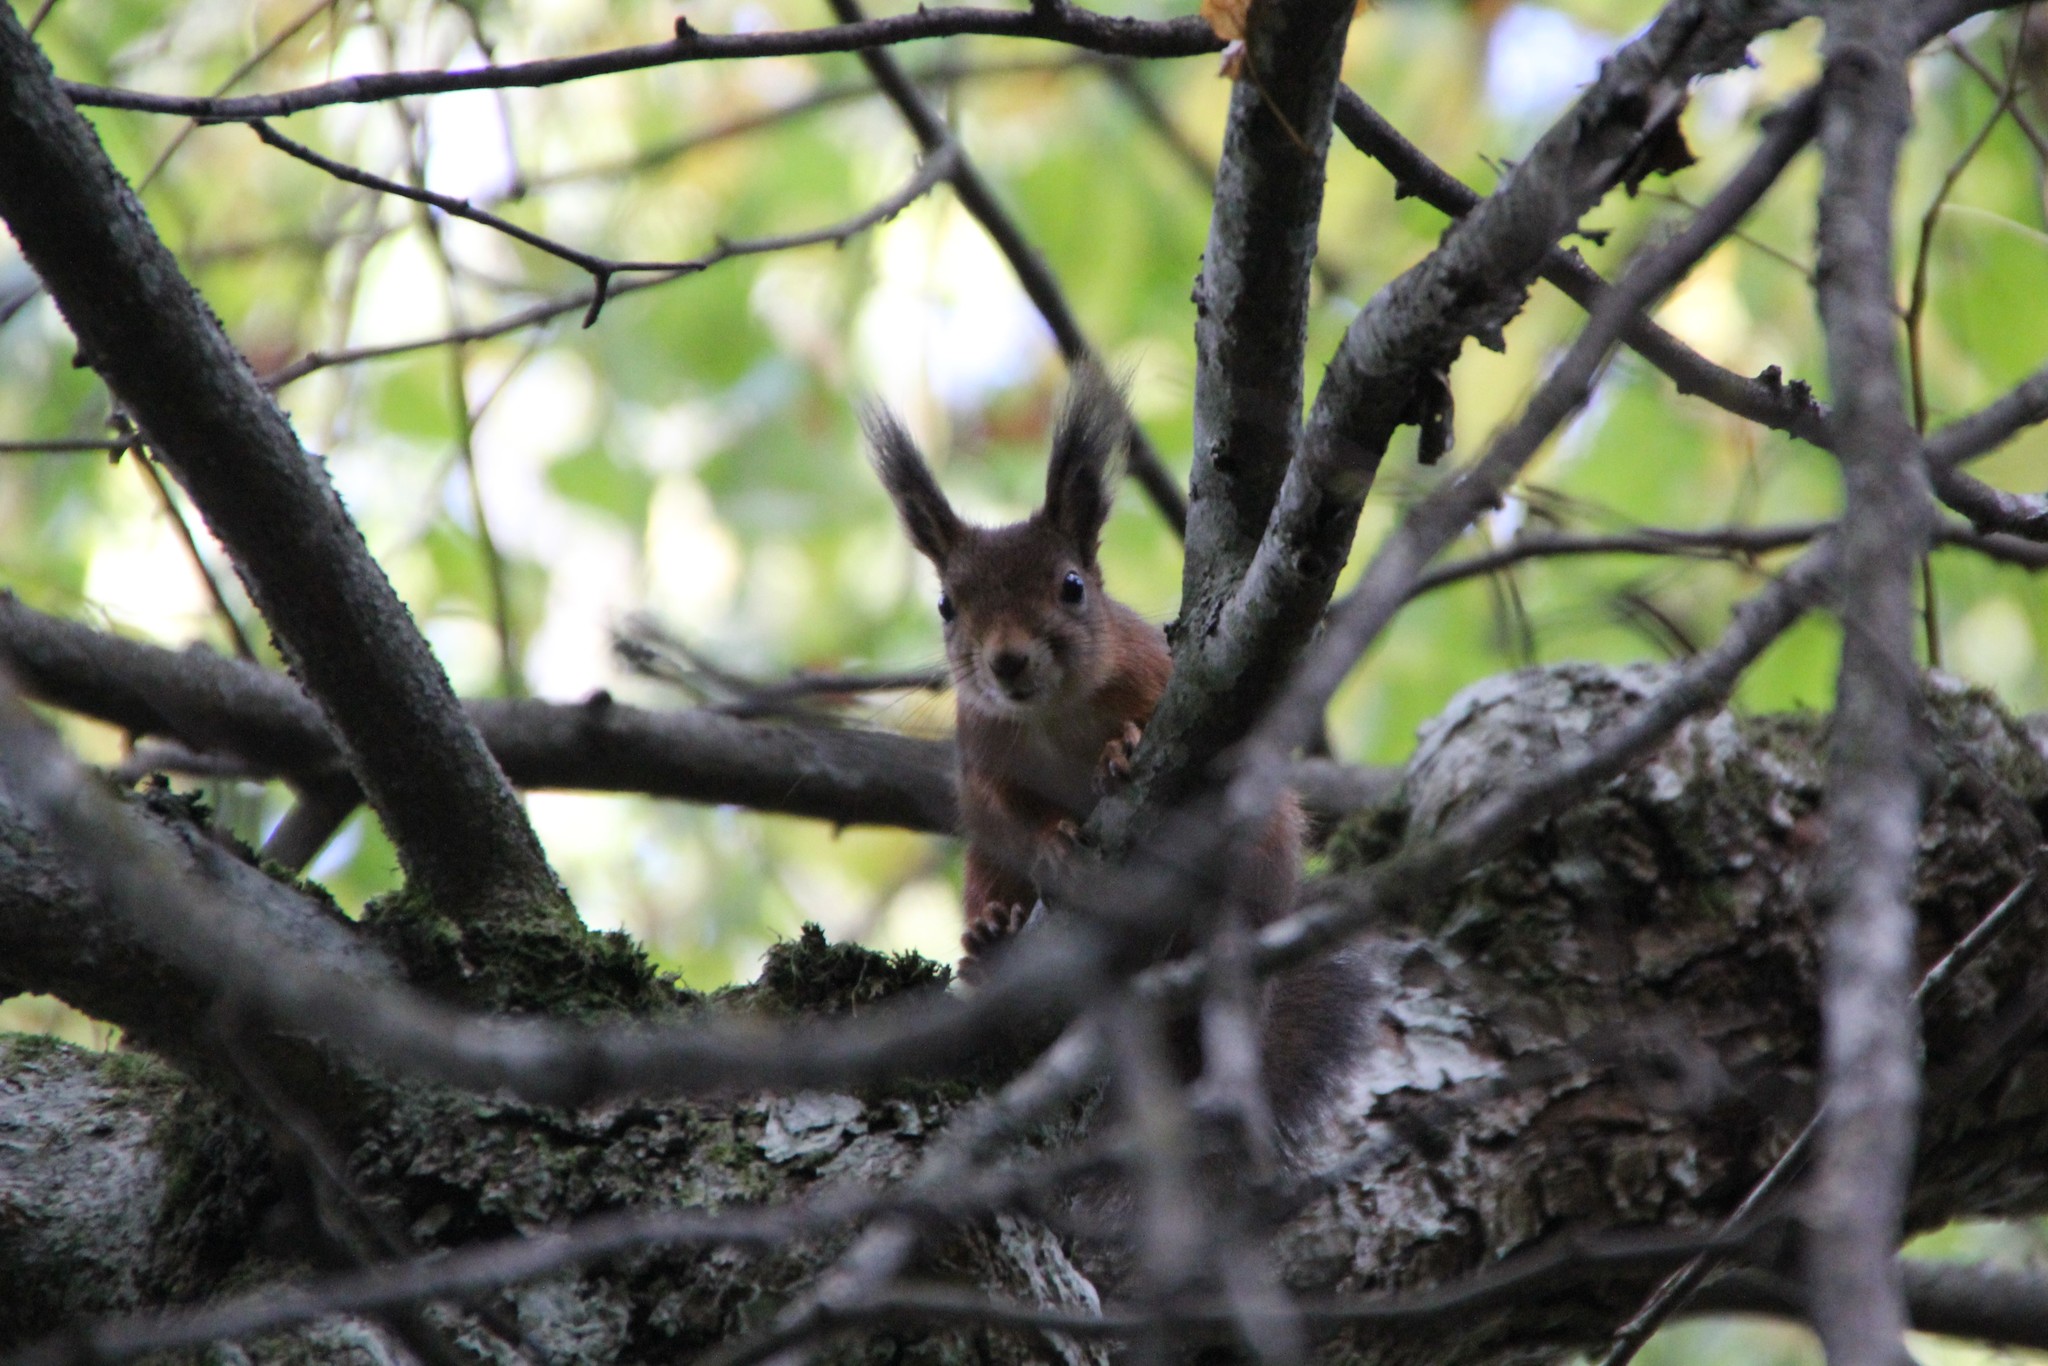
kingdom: Animalia
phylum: Chordata
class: Mammalia
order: Rodentia
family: Sciuridae
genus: Sciurus
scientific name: Sciurus vulgaris
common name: Eurasian red squirrel
